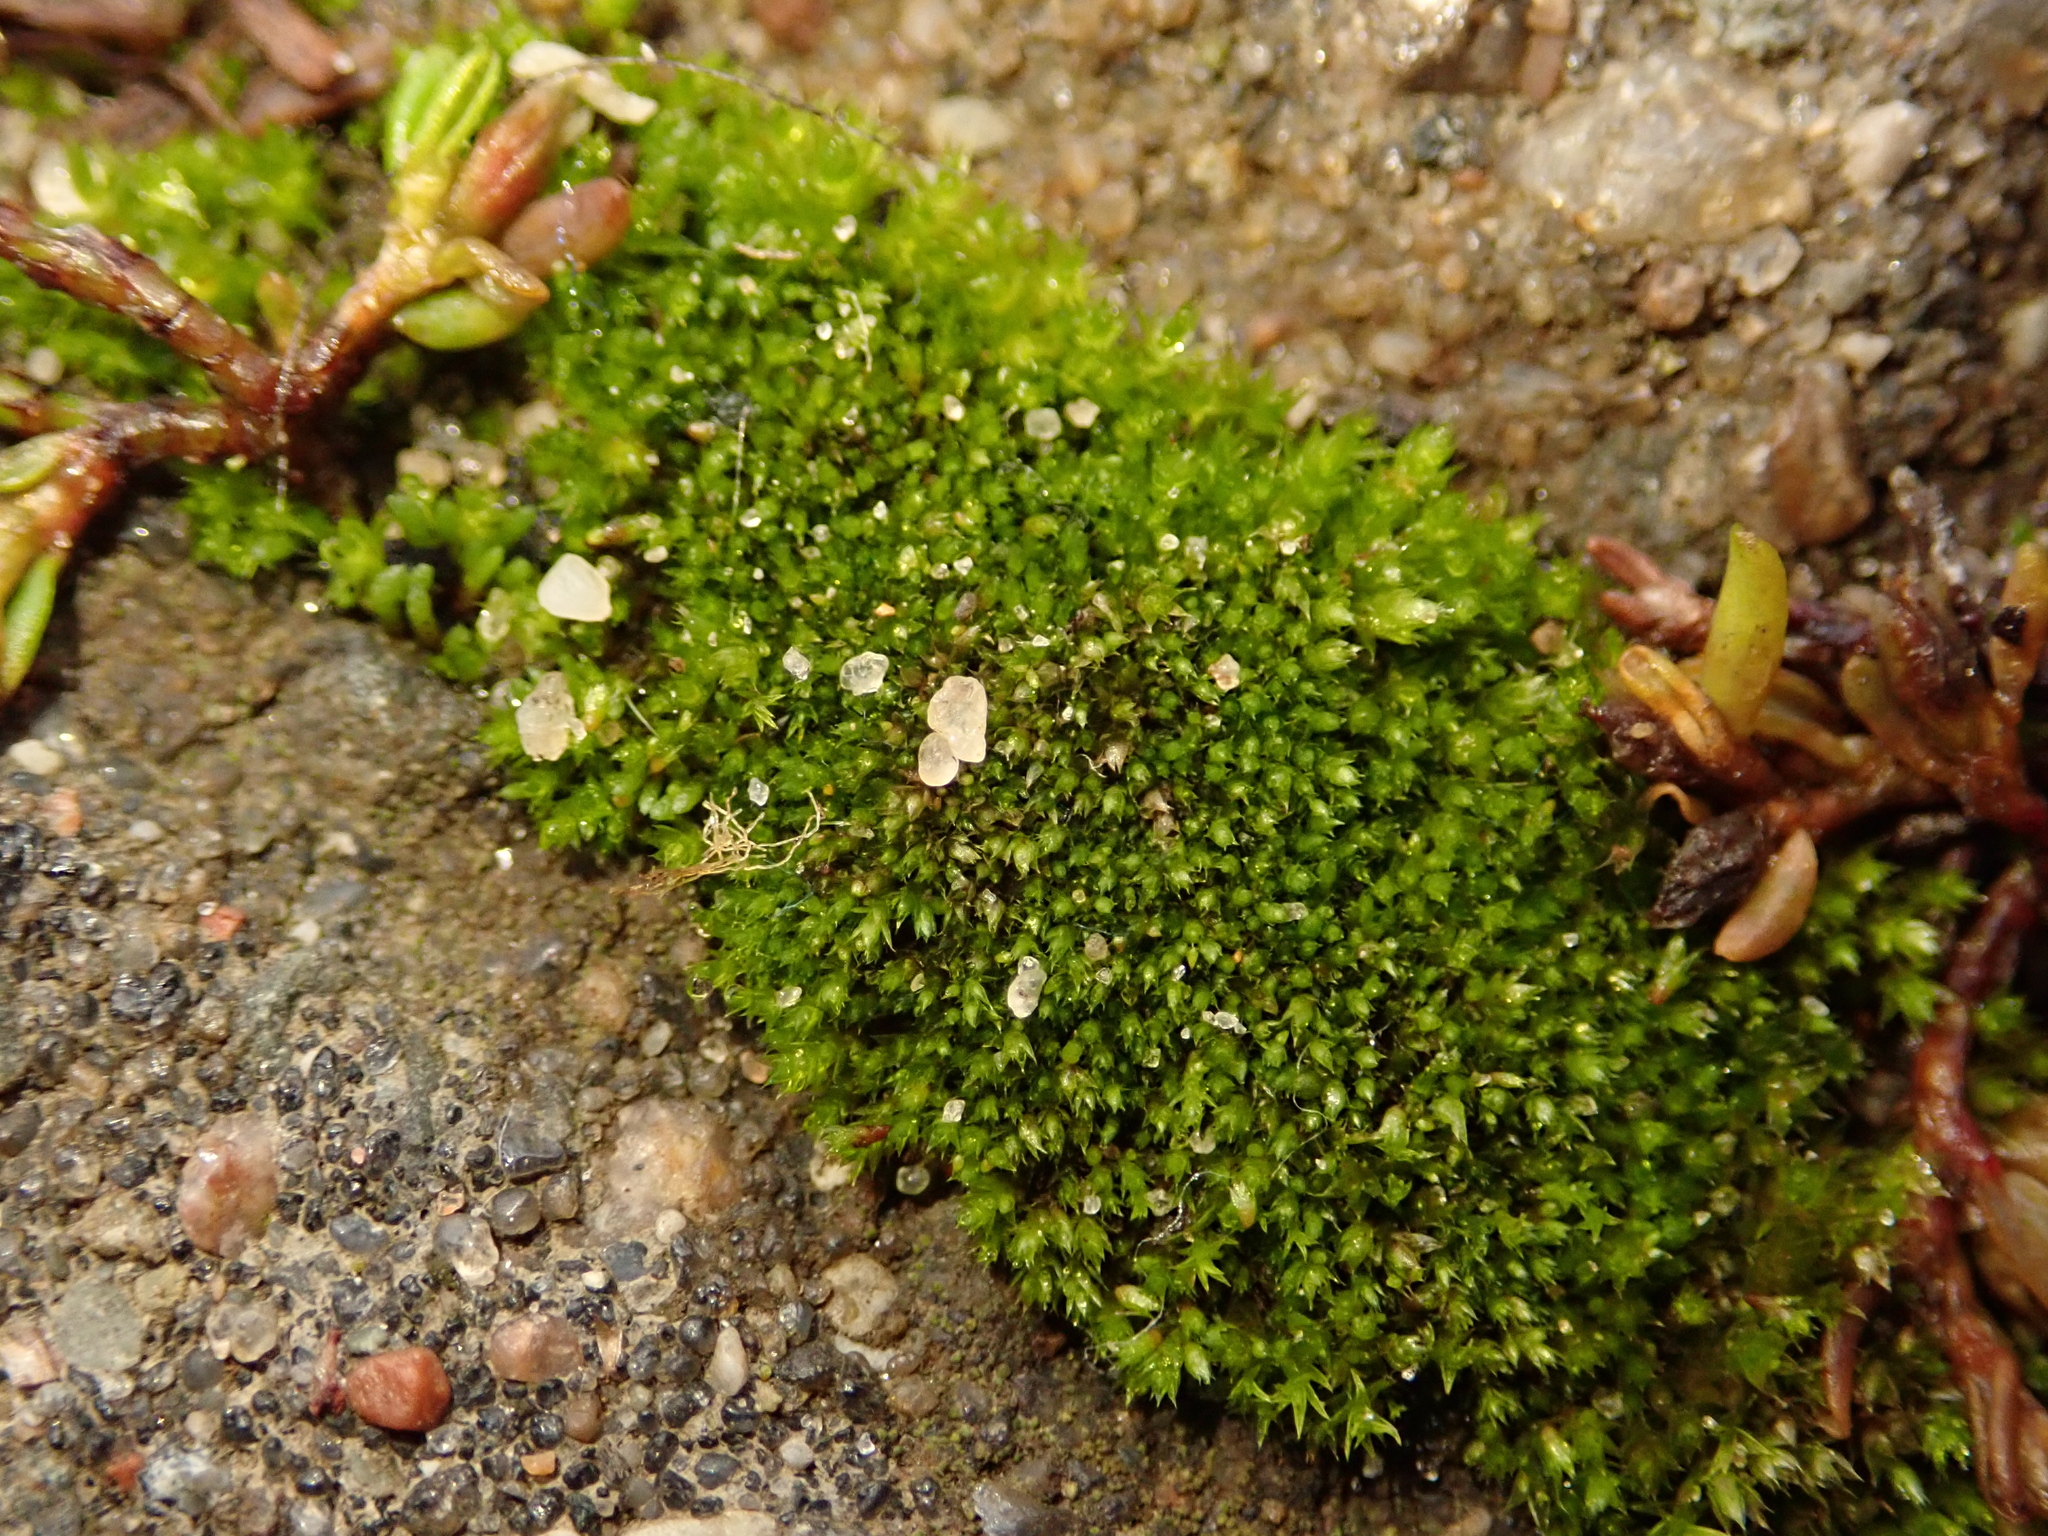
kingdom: Plantae
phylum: Bryophyta
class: Bryopsida
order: Bryales
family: Bryaceae
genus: Bryum
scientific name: Bryum argenteum
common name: Silver-moss
